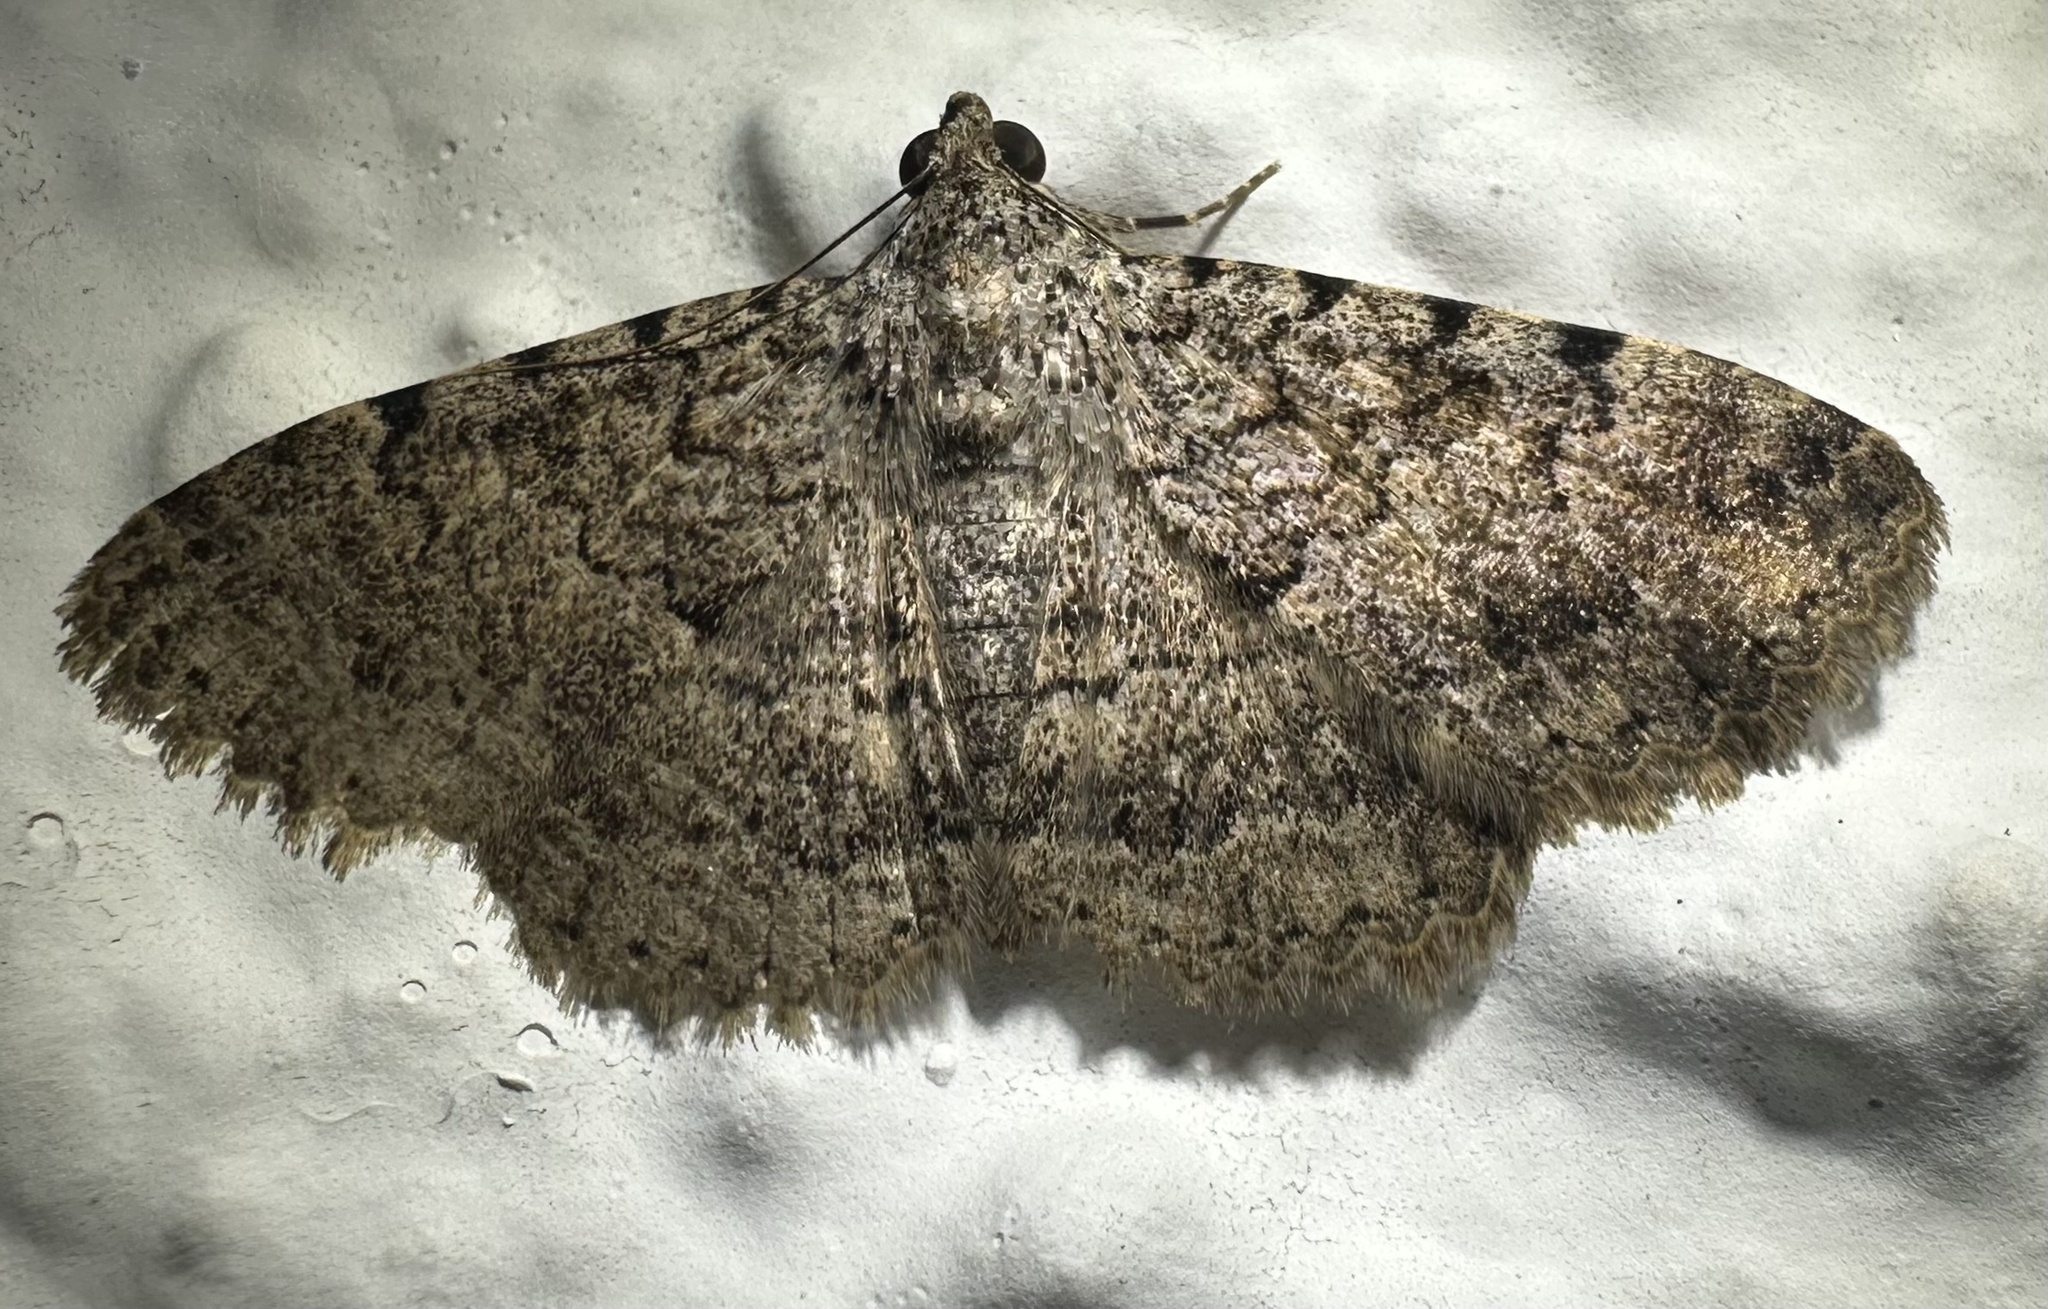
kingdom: Animalia
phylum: Arthropoda
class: Insecta
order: Lepidoptera
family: Erebidae
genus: Polydesma
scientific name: Polydesma umbricola
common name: Monkeypod moth
